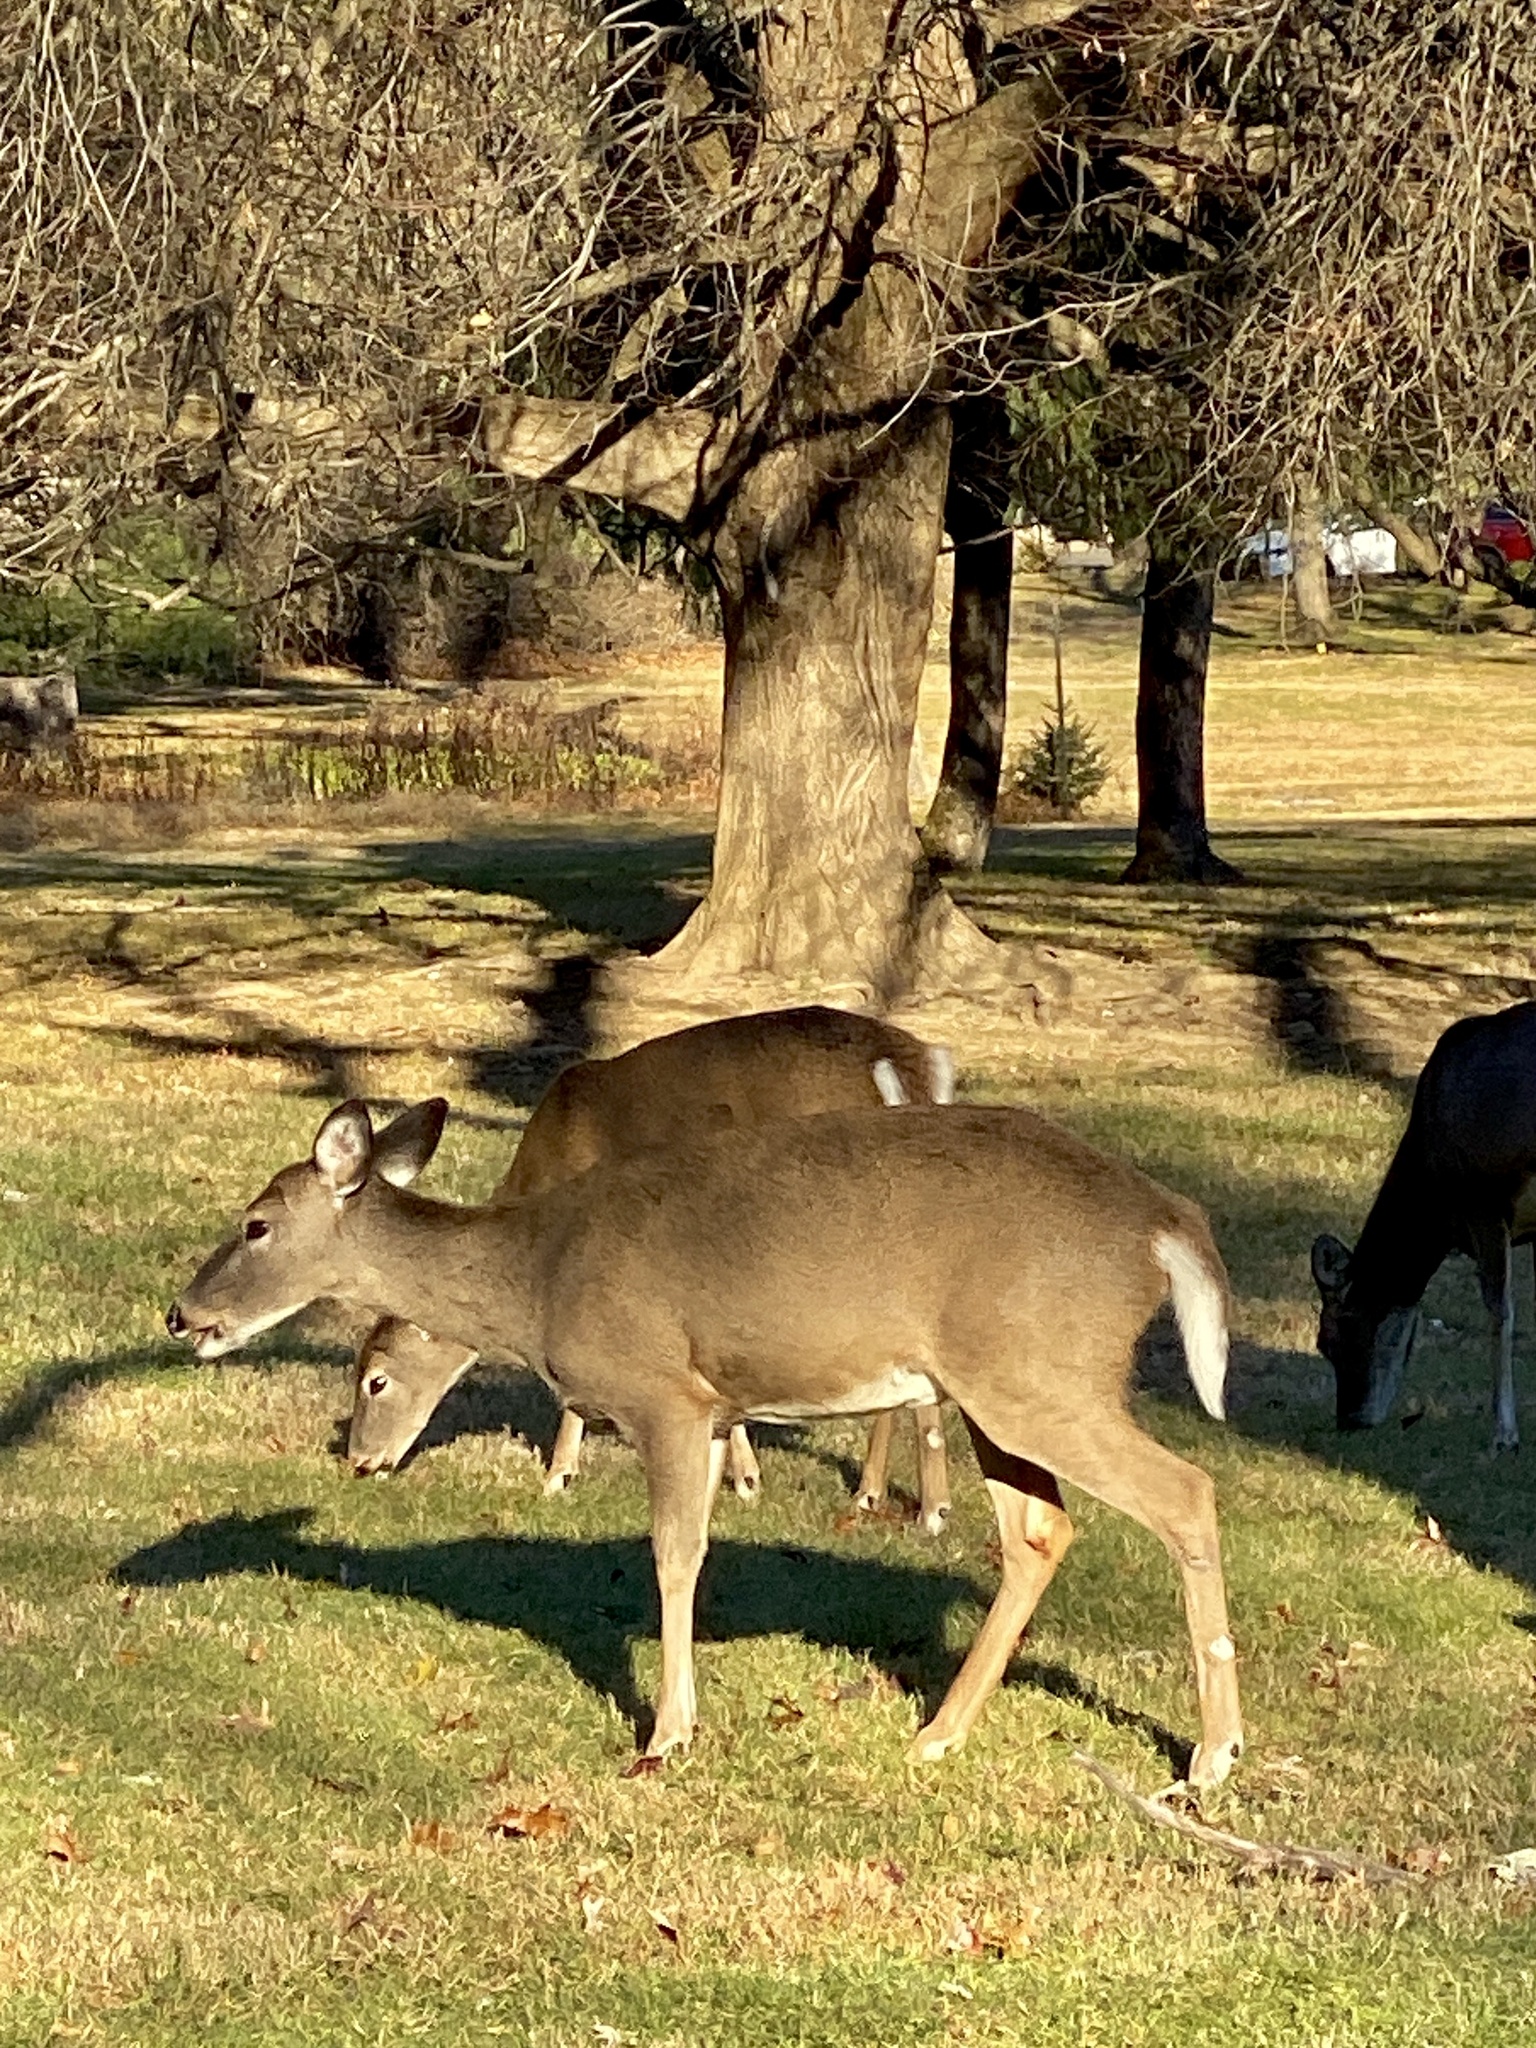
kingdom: Animalia
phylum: Chordata
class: Mammalia
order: Artiodactyla
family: Cervidae
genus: Odocoileus
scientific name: Odocoileus virginianus
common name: White-tailed deer
